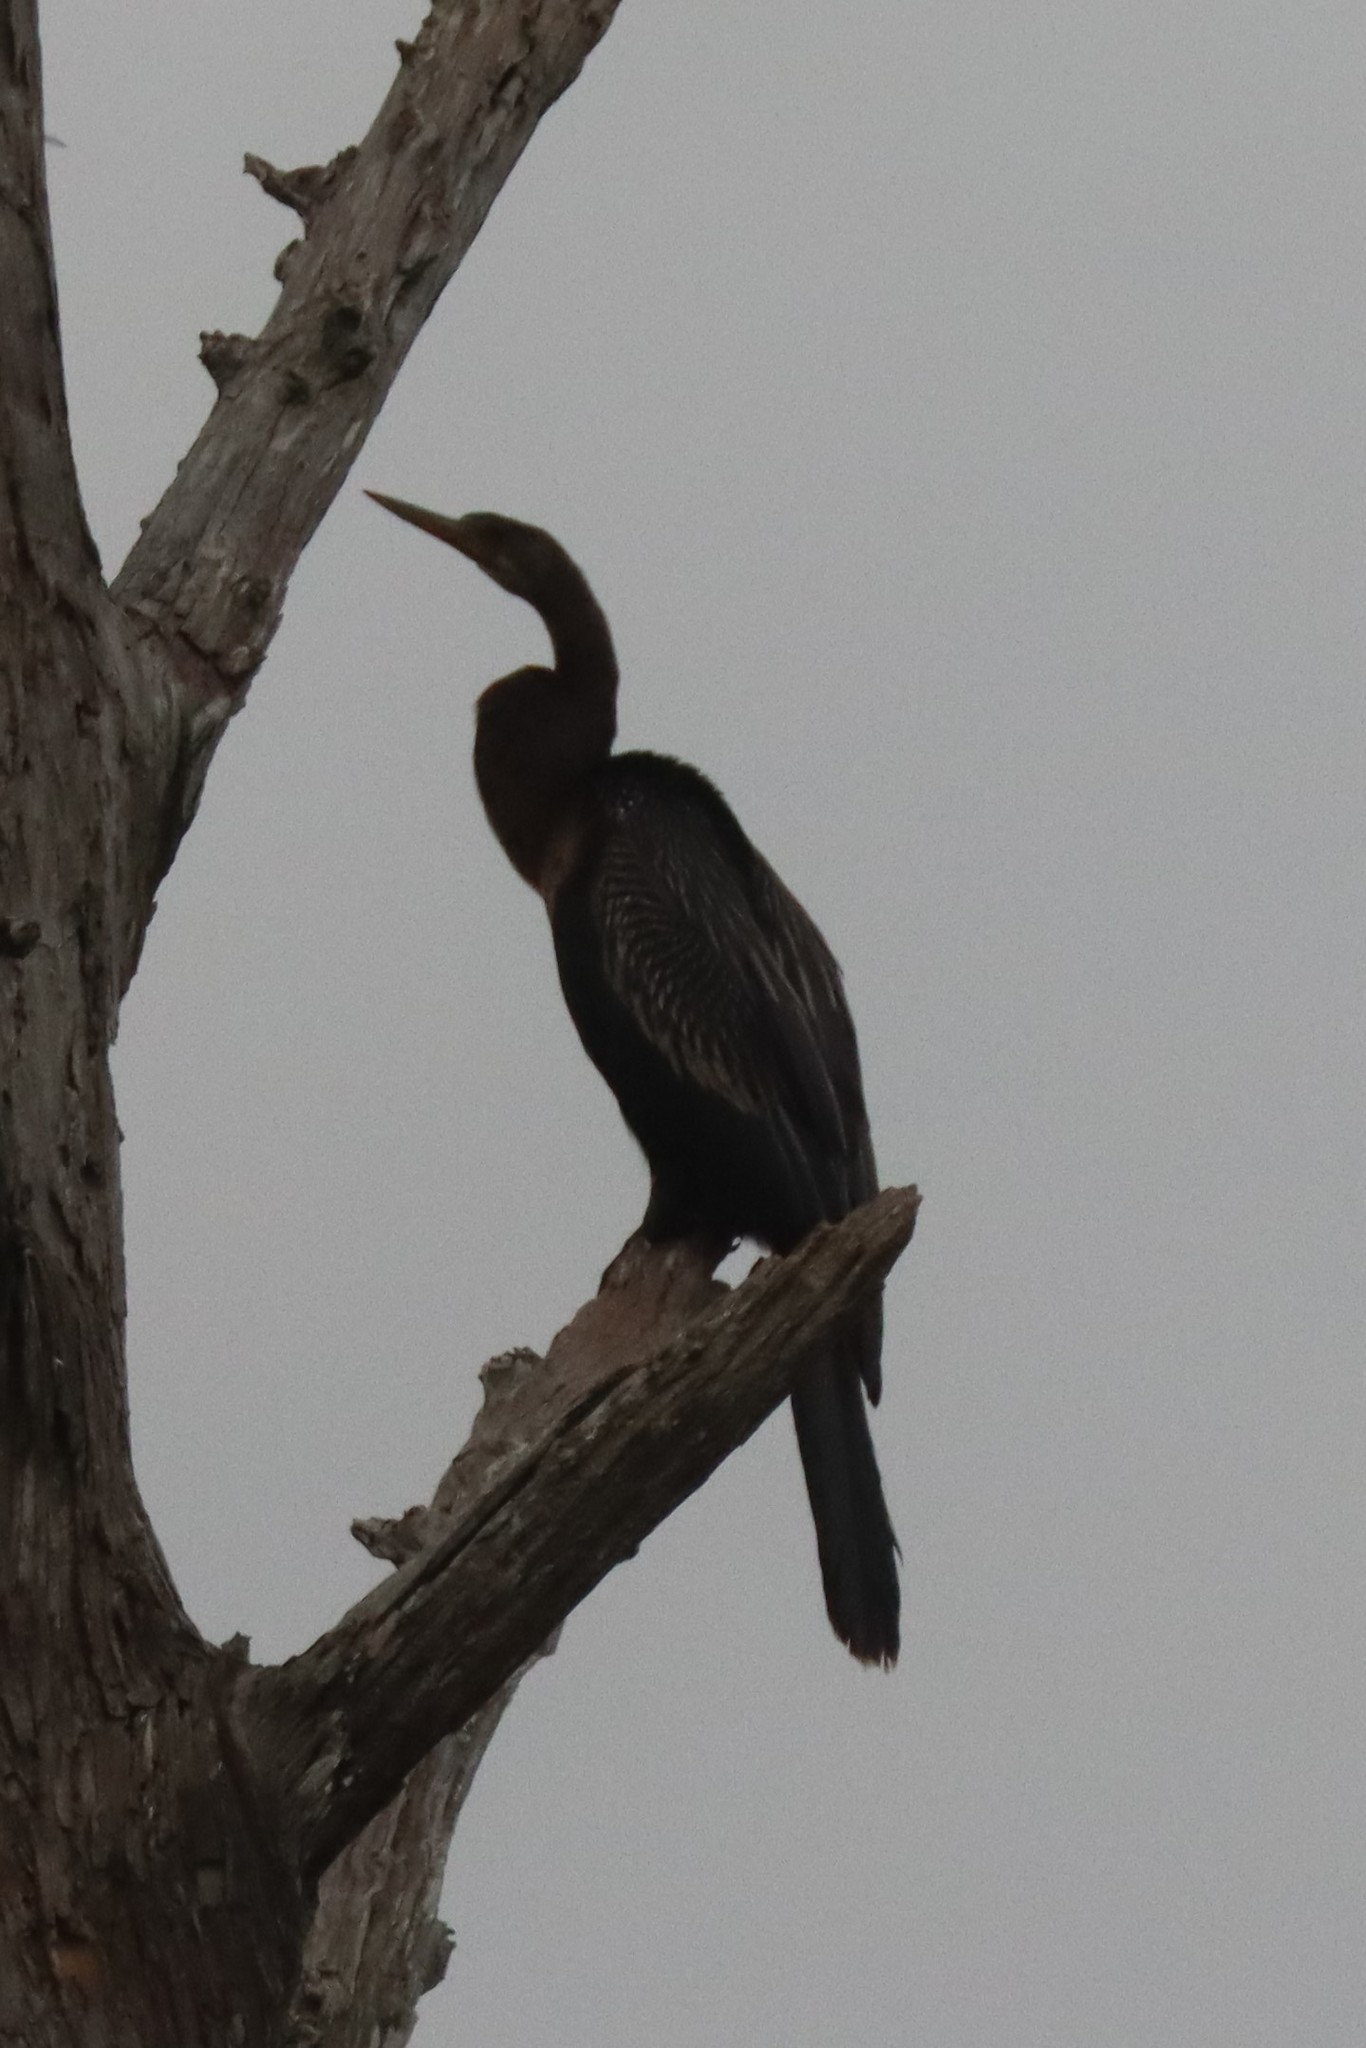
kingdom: Animalia
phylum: Chordata
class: Aves
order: Suliformes
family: Anhingidae
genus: Anhinga
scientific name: Anhinga anhinga
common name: Anhinga
